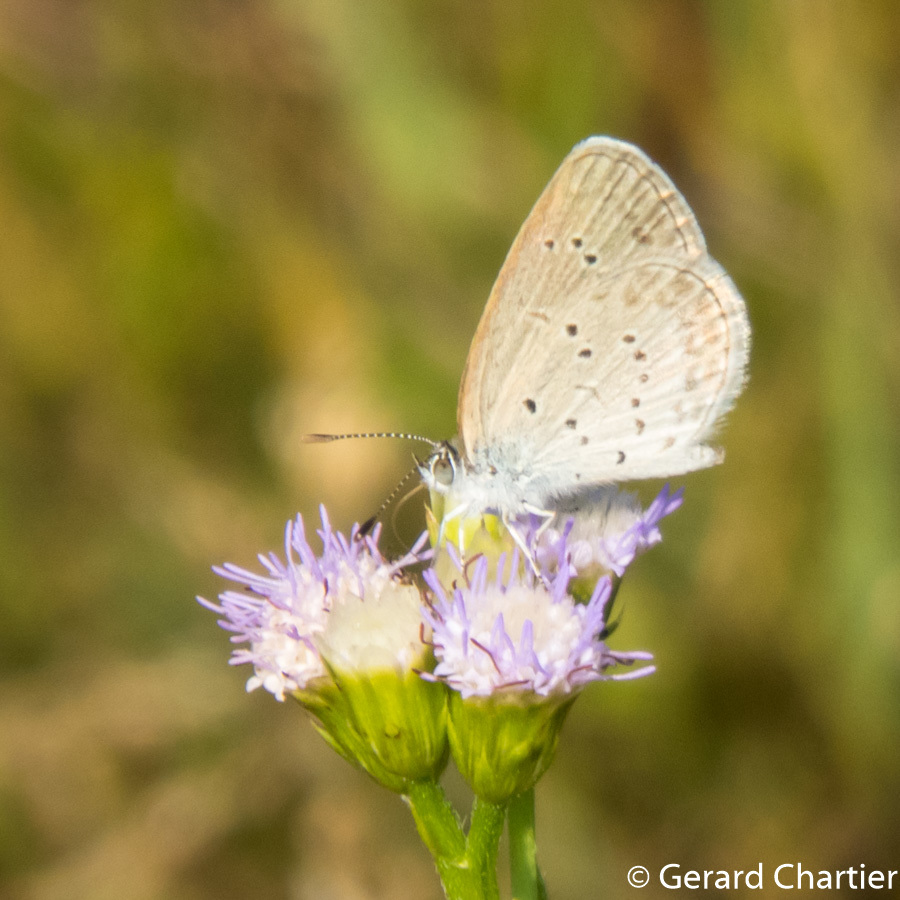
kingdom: Animalia
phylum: Arthropoda
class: Insecta
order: Lepidoptera
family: Lycaenidae
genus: Zizina
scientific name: Zizina otis
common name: Lesser grass blue
